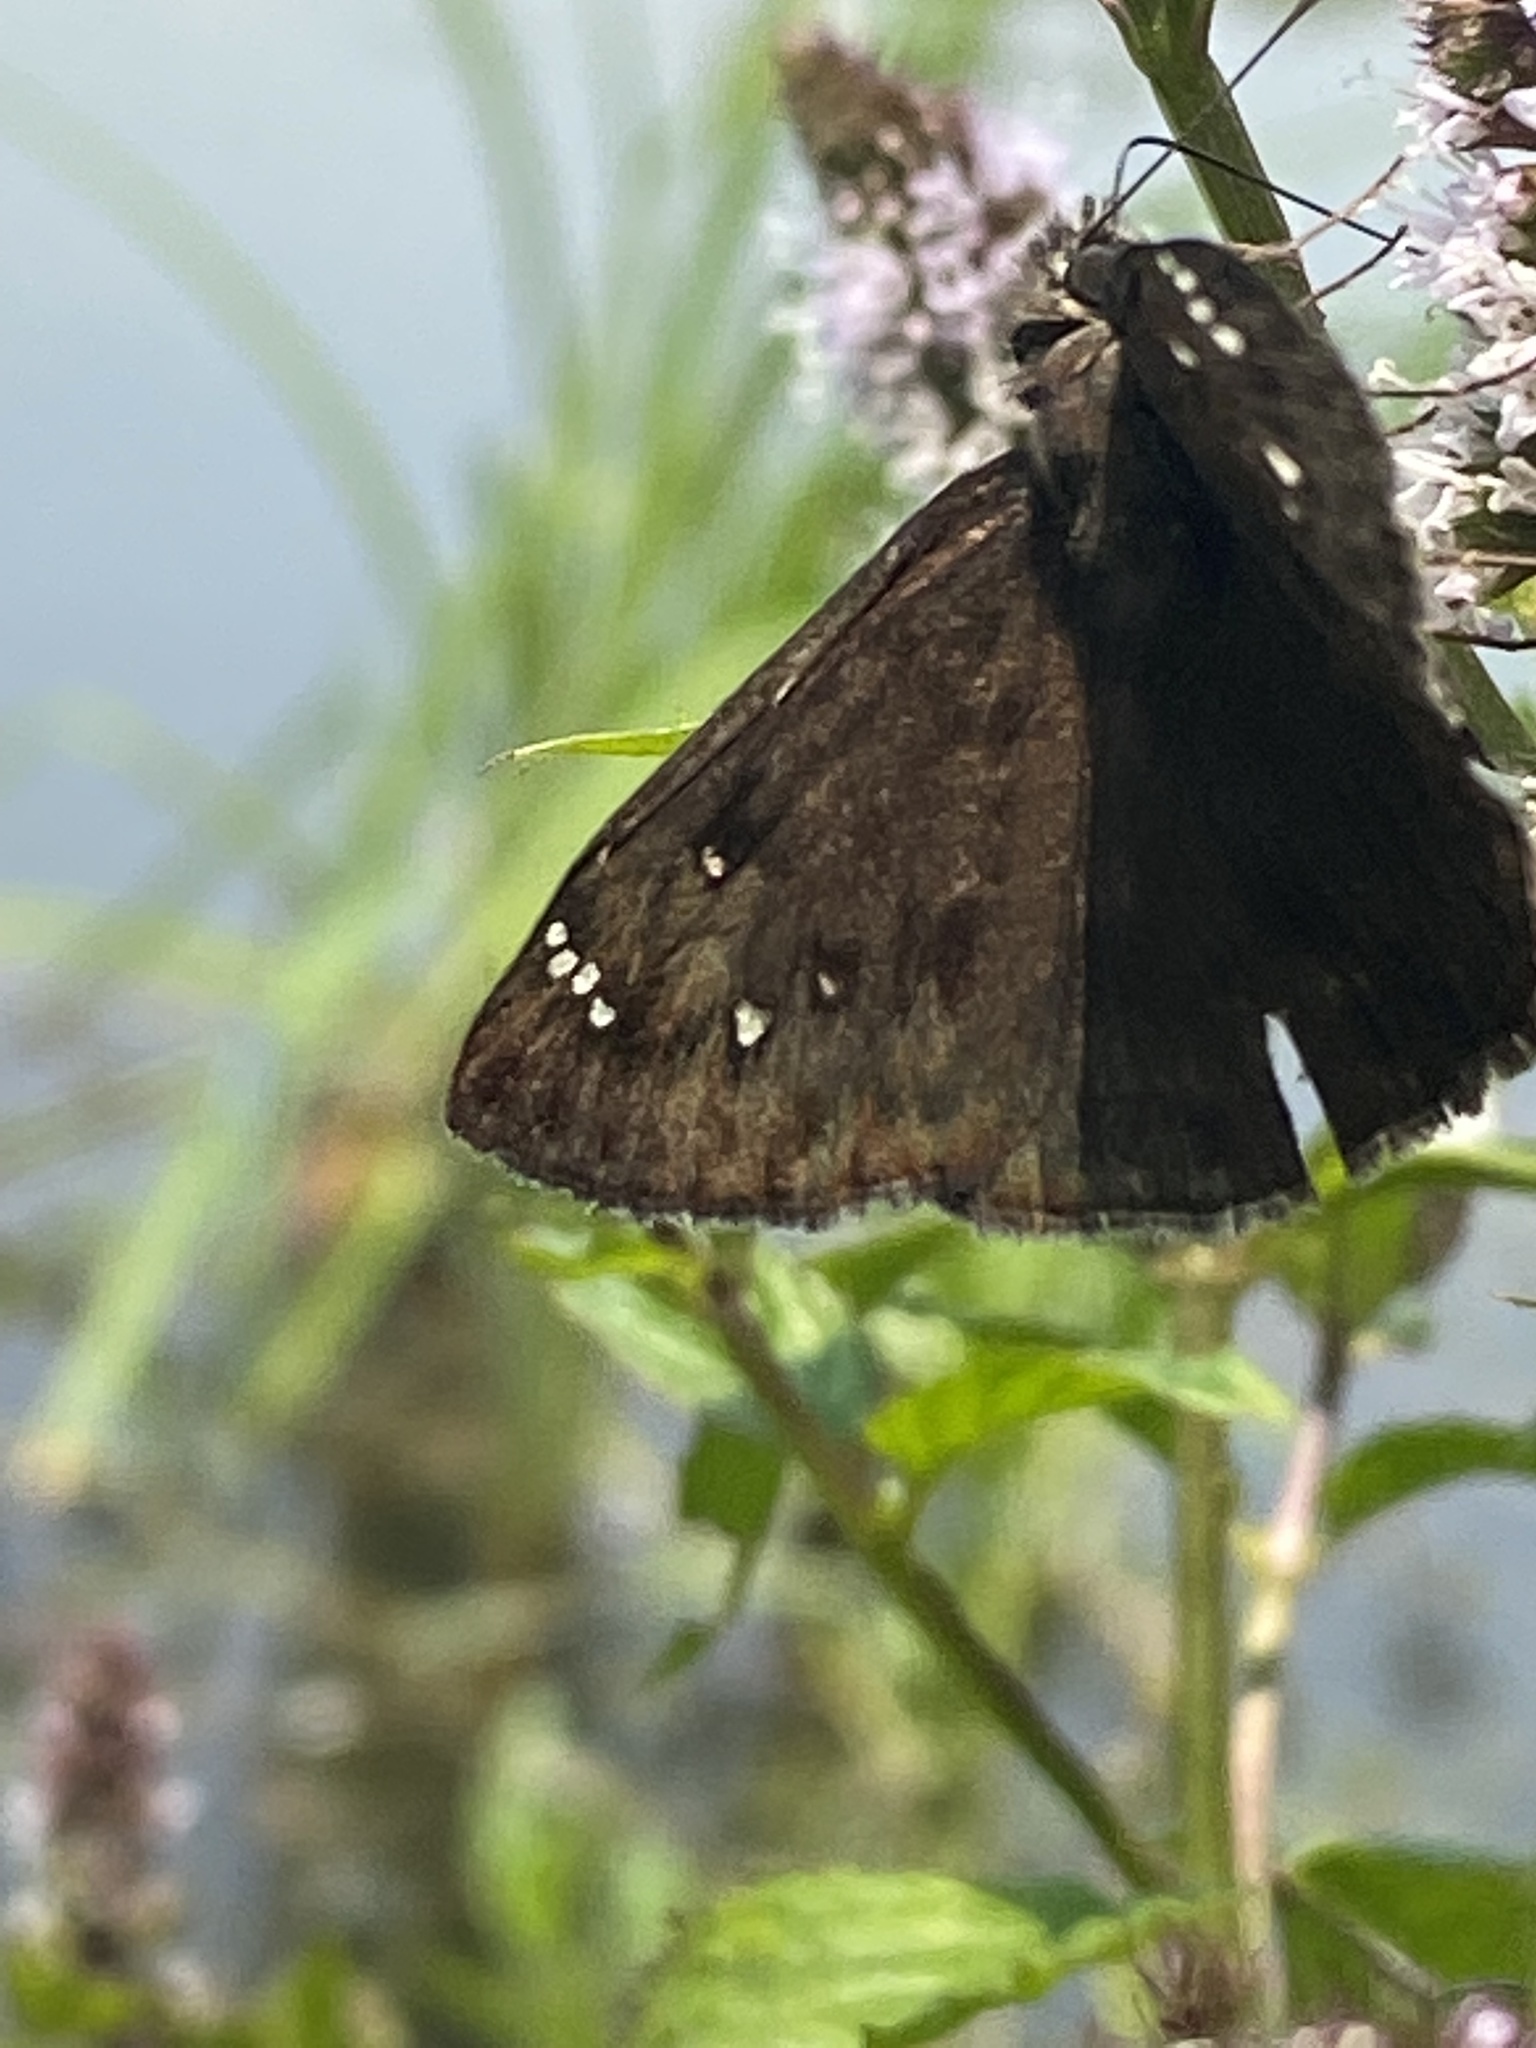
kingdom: Animalia
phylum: Arthropoda
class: Insecta
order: Lepidoptera
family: Hesperiidae
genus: Erynnis
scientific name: Erynnis horatius
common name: Horace's duskywing
